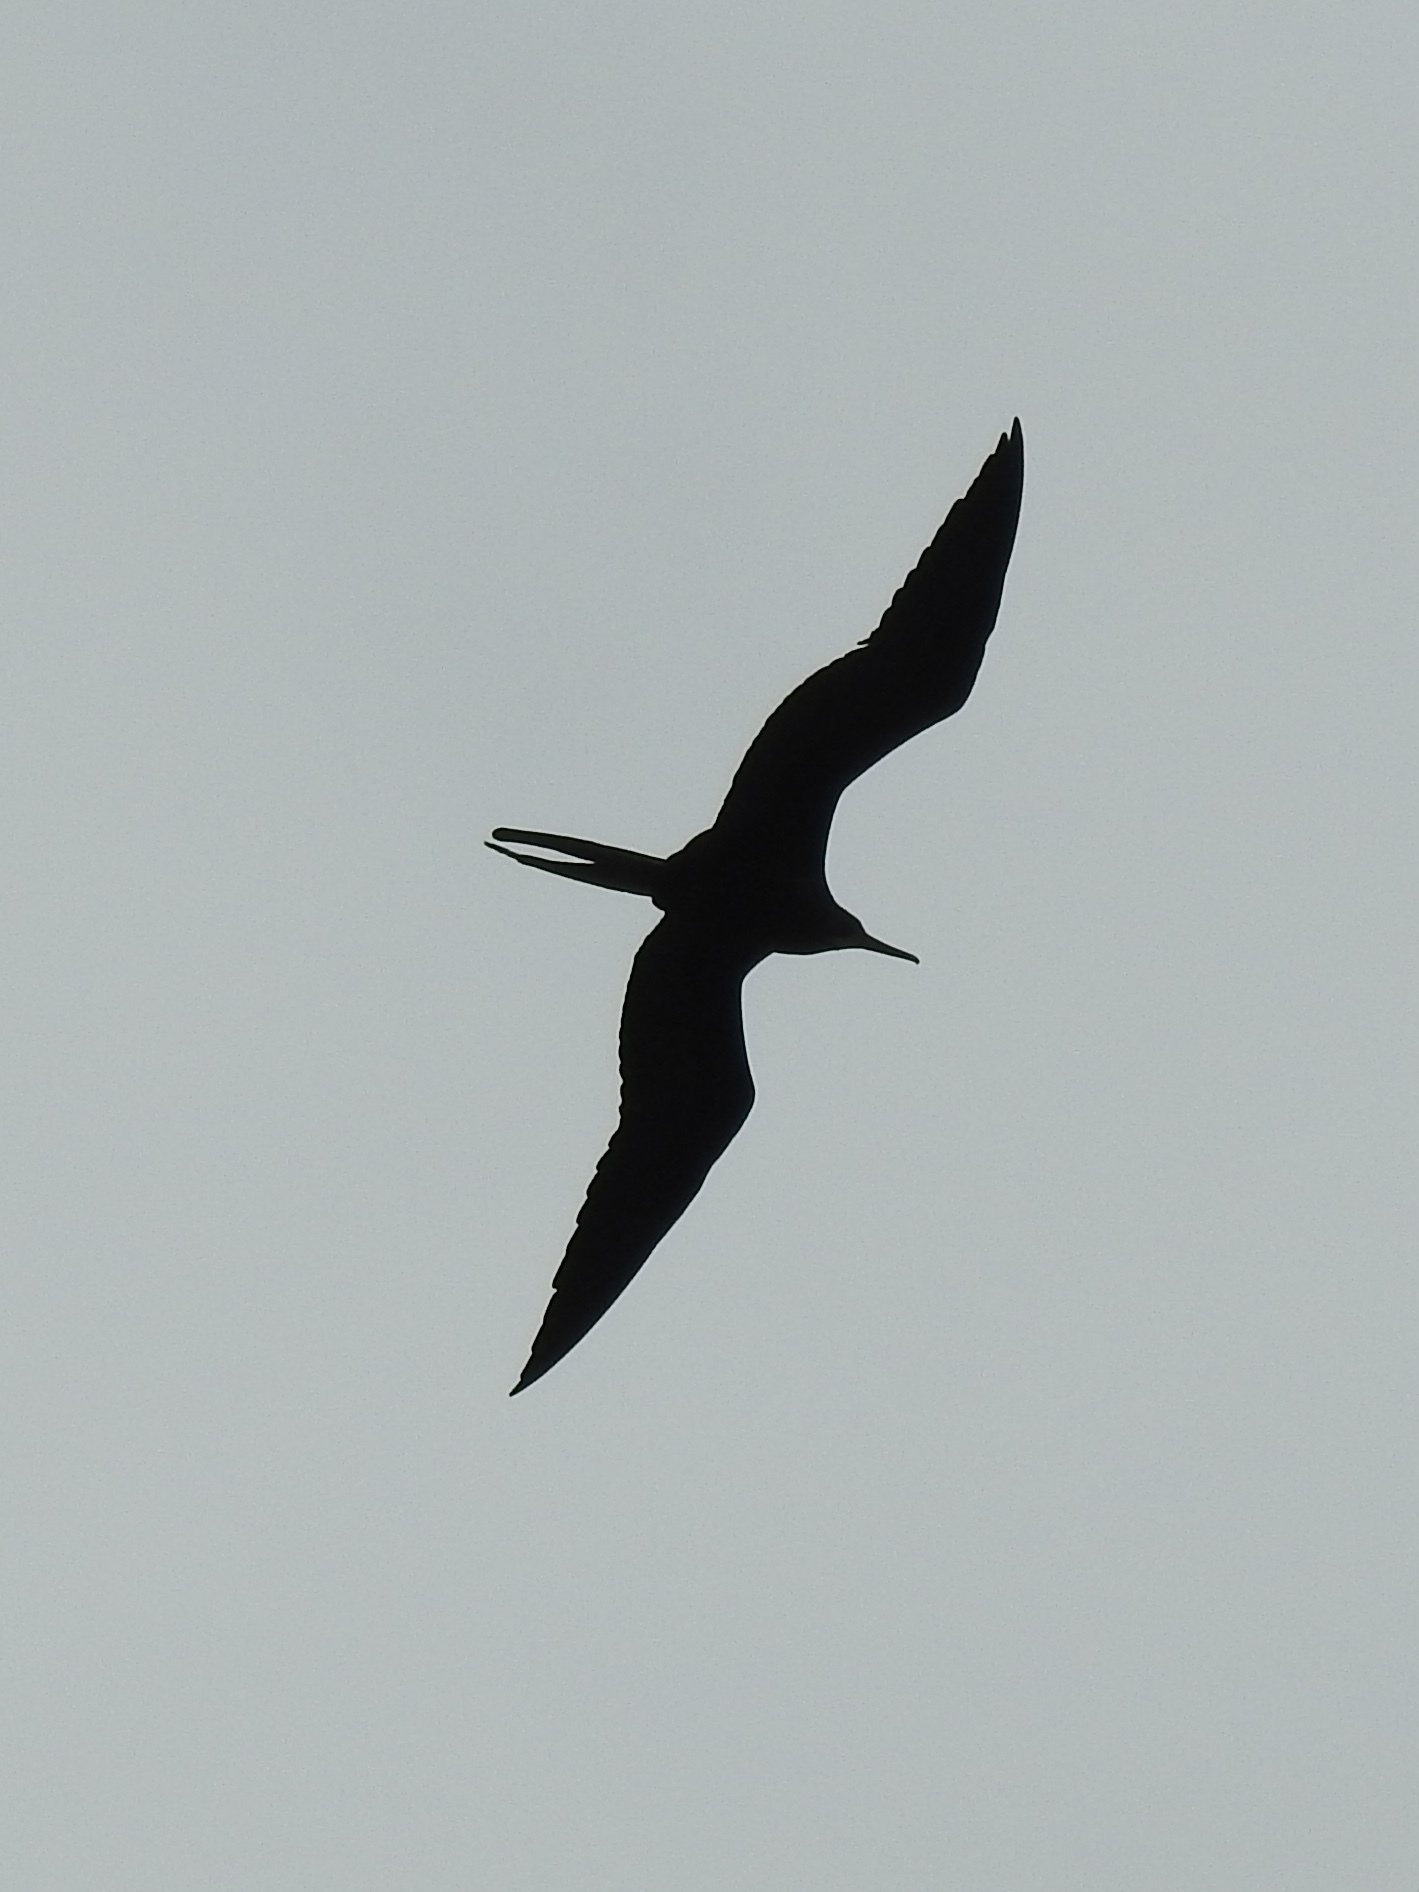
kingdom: Animalia
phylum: Chordata
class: Aves
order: Suliformes
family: Fregatidae
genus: Fregata
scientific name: Fregata magnificens
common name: Magnificent frigatebird
